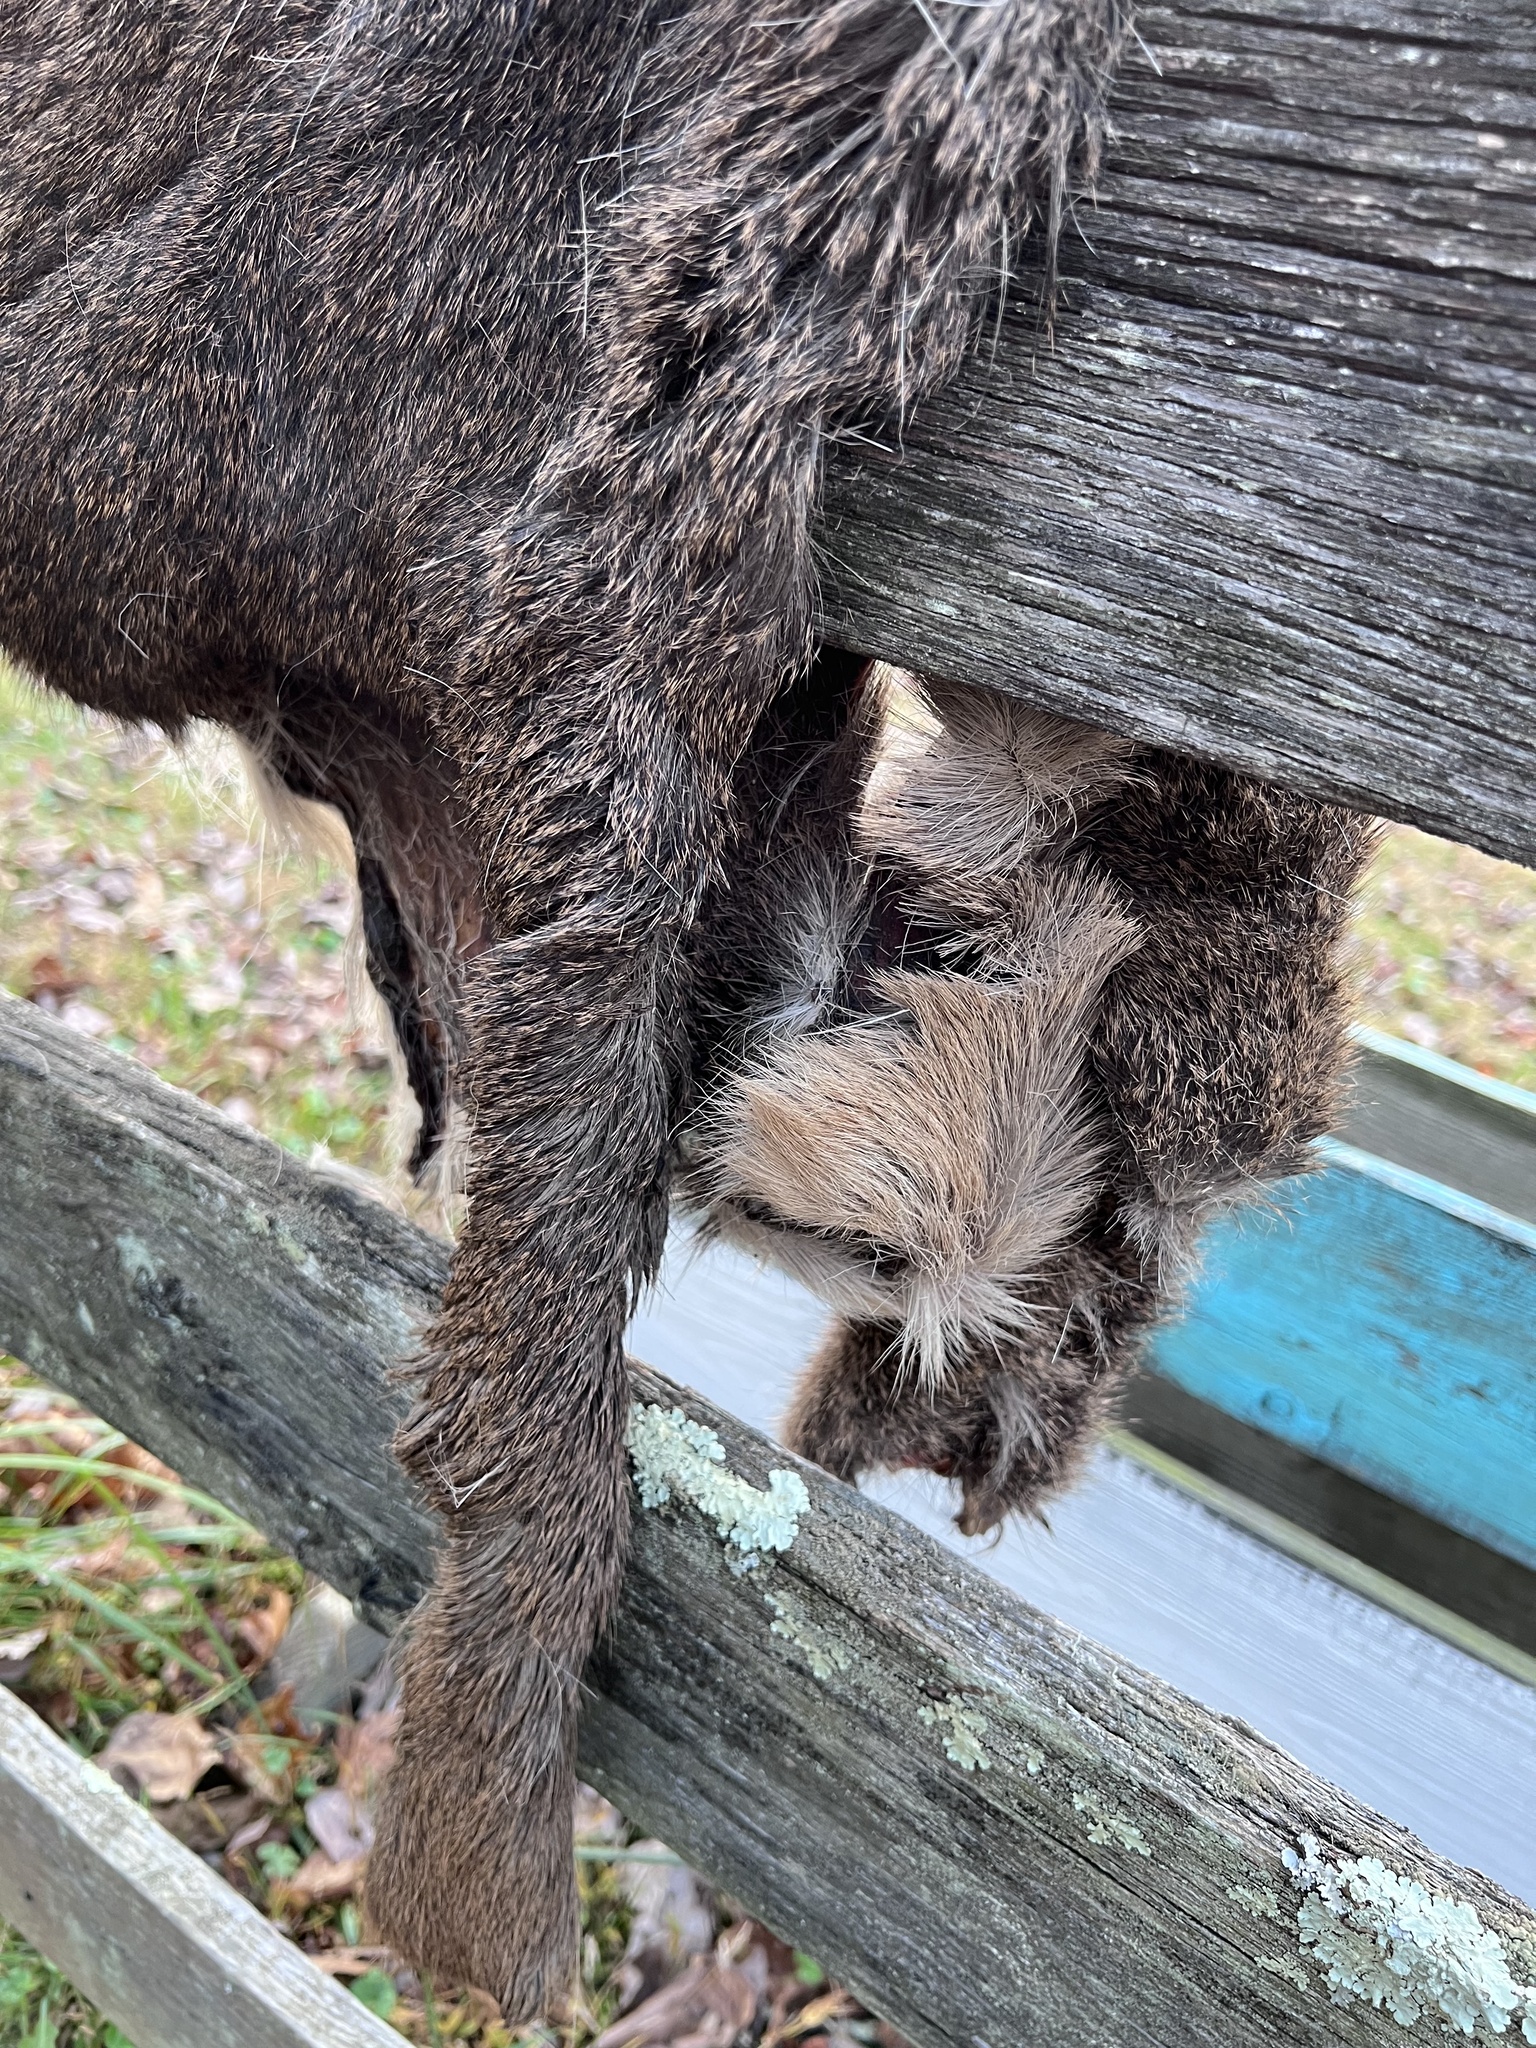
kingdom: Animalia
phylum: Chordata
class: Mammalia
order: Artiodactyla
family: Cervidae
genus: Odocoileus
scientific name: Odocoileus virginianus
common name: White-tailed deer
